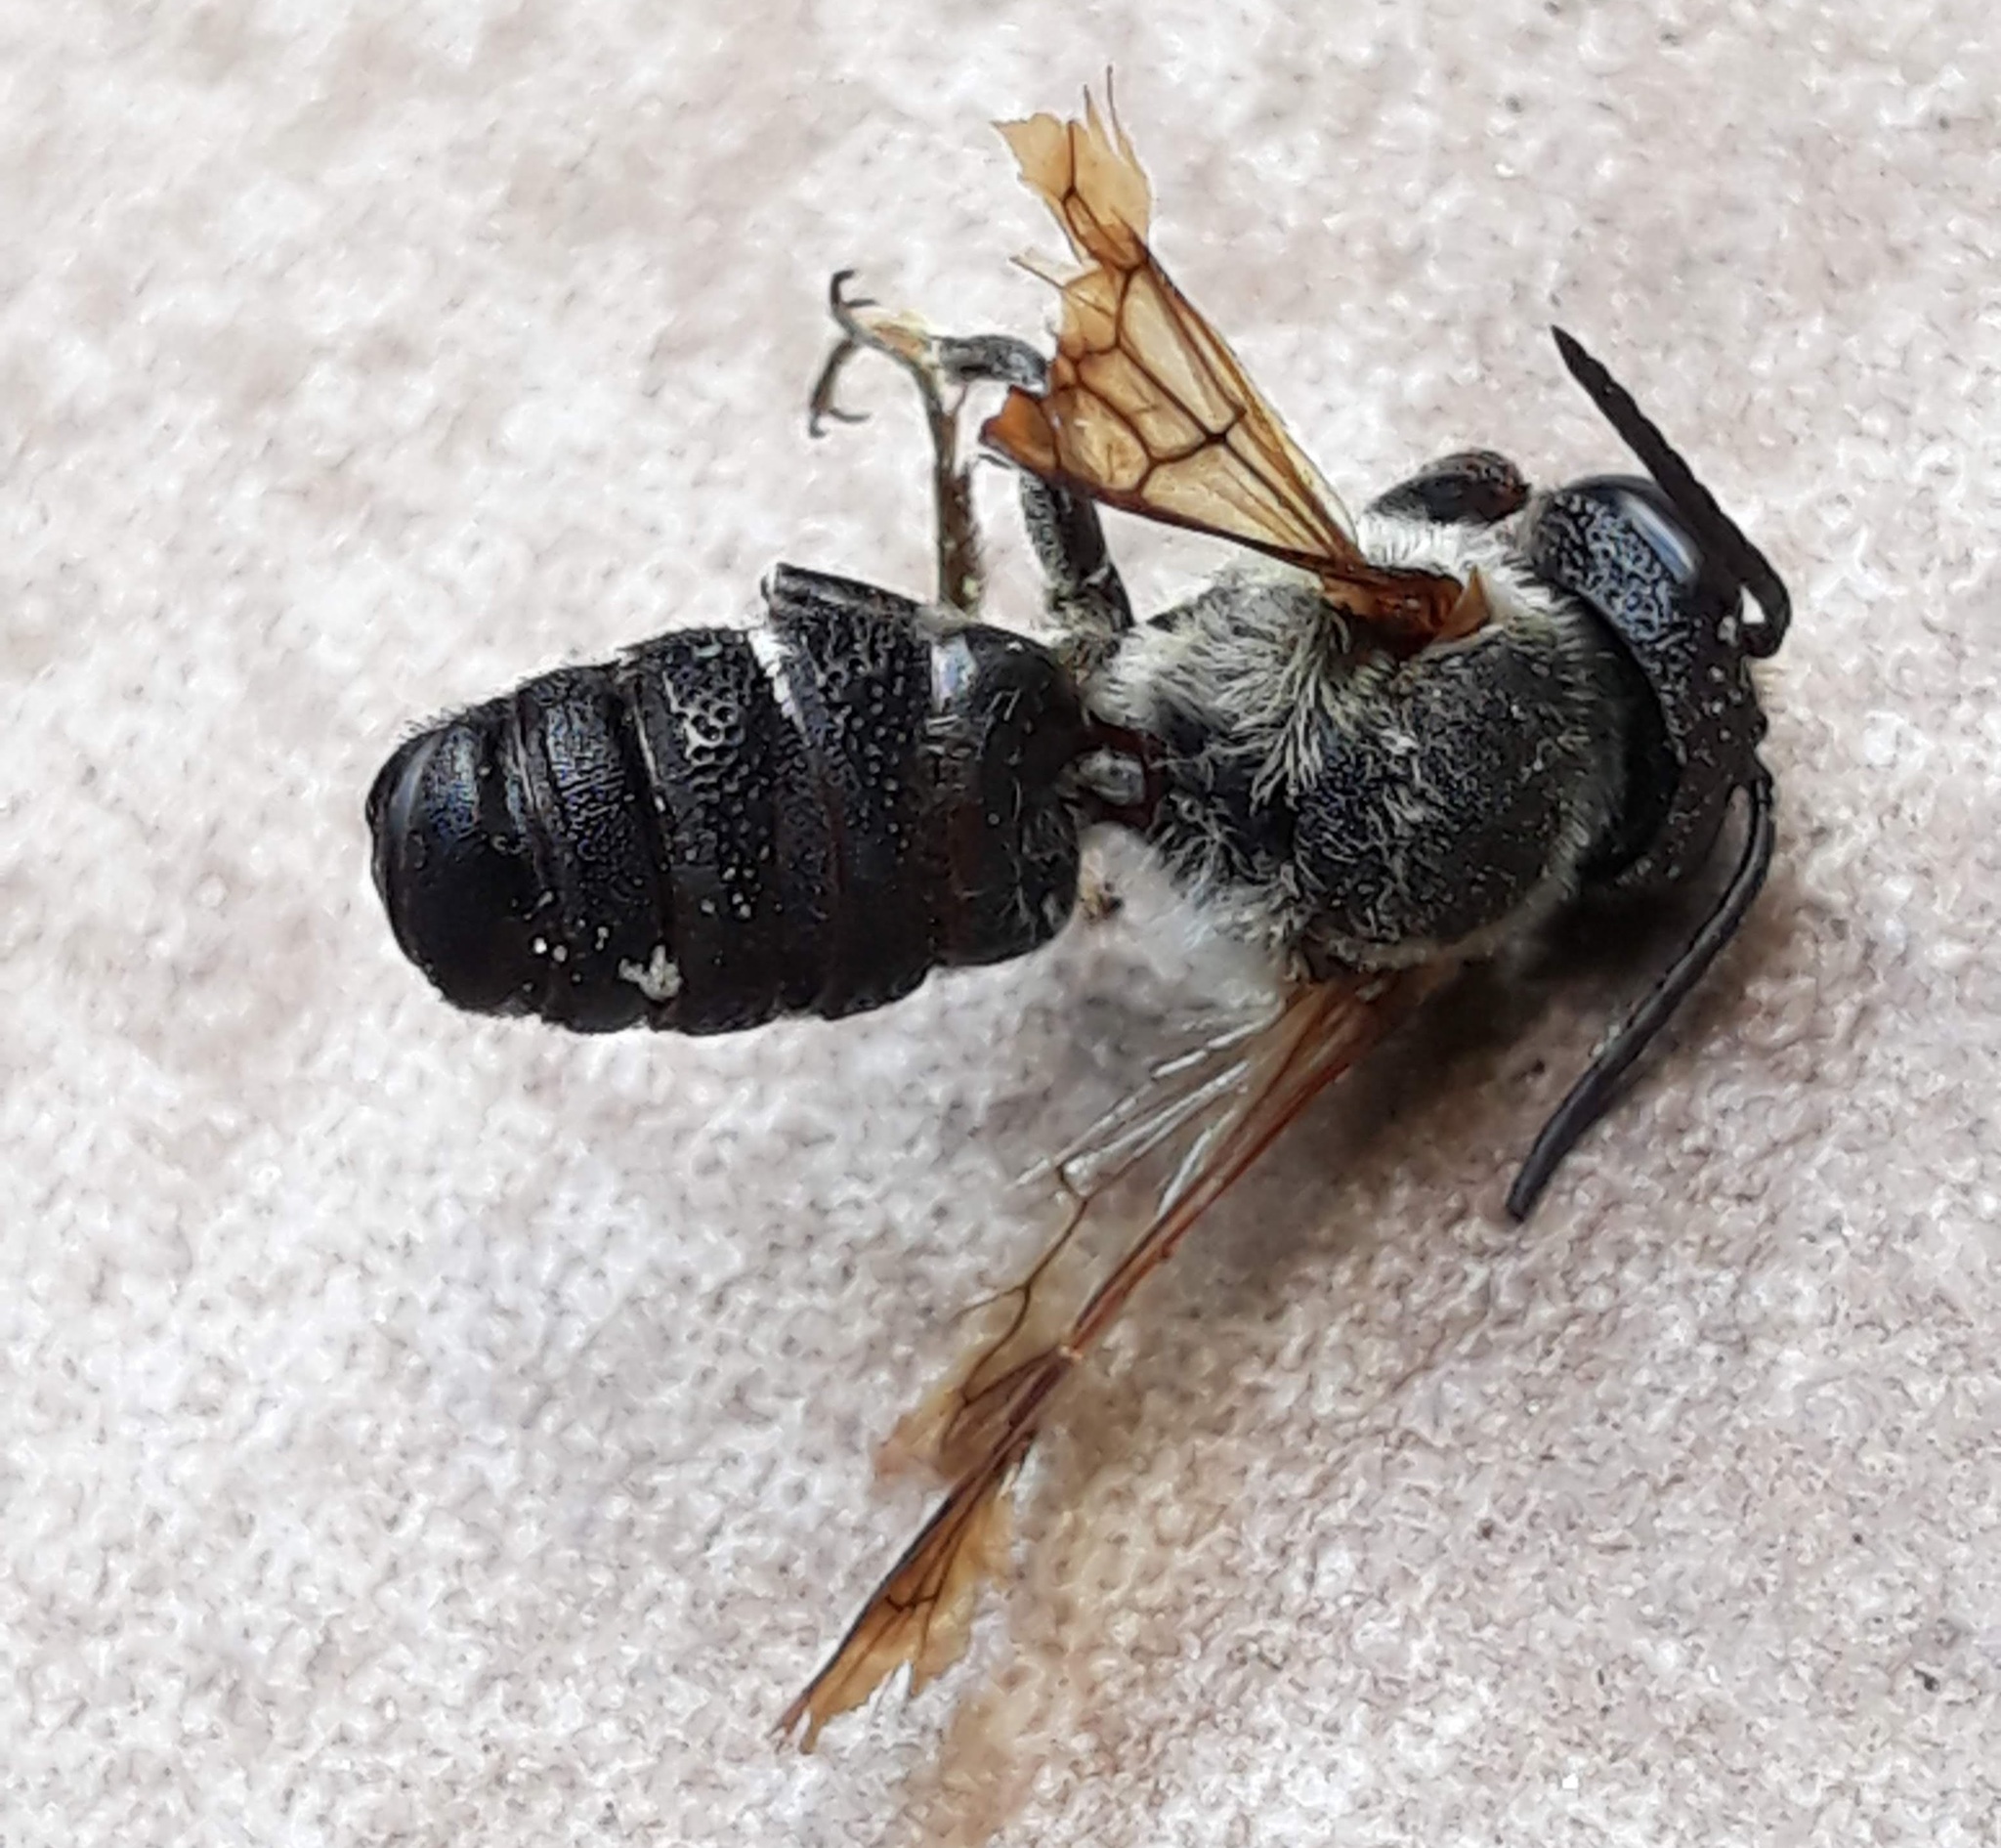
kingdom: Animalia
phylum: Arthropoda
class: Insecta
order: Hymenoptera
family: Megachilidae
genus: Megachile
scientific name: Megachile sculpturalis
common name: Sculptured resin bee
